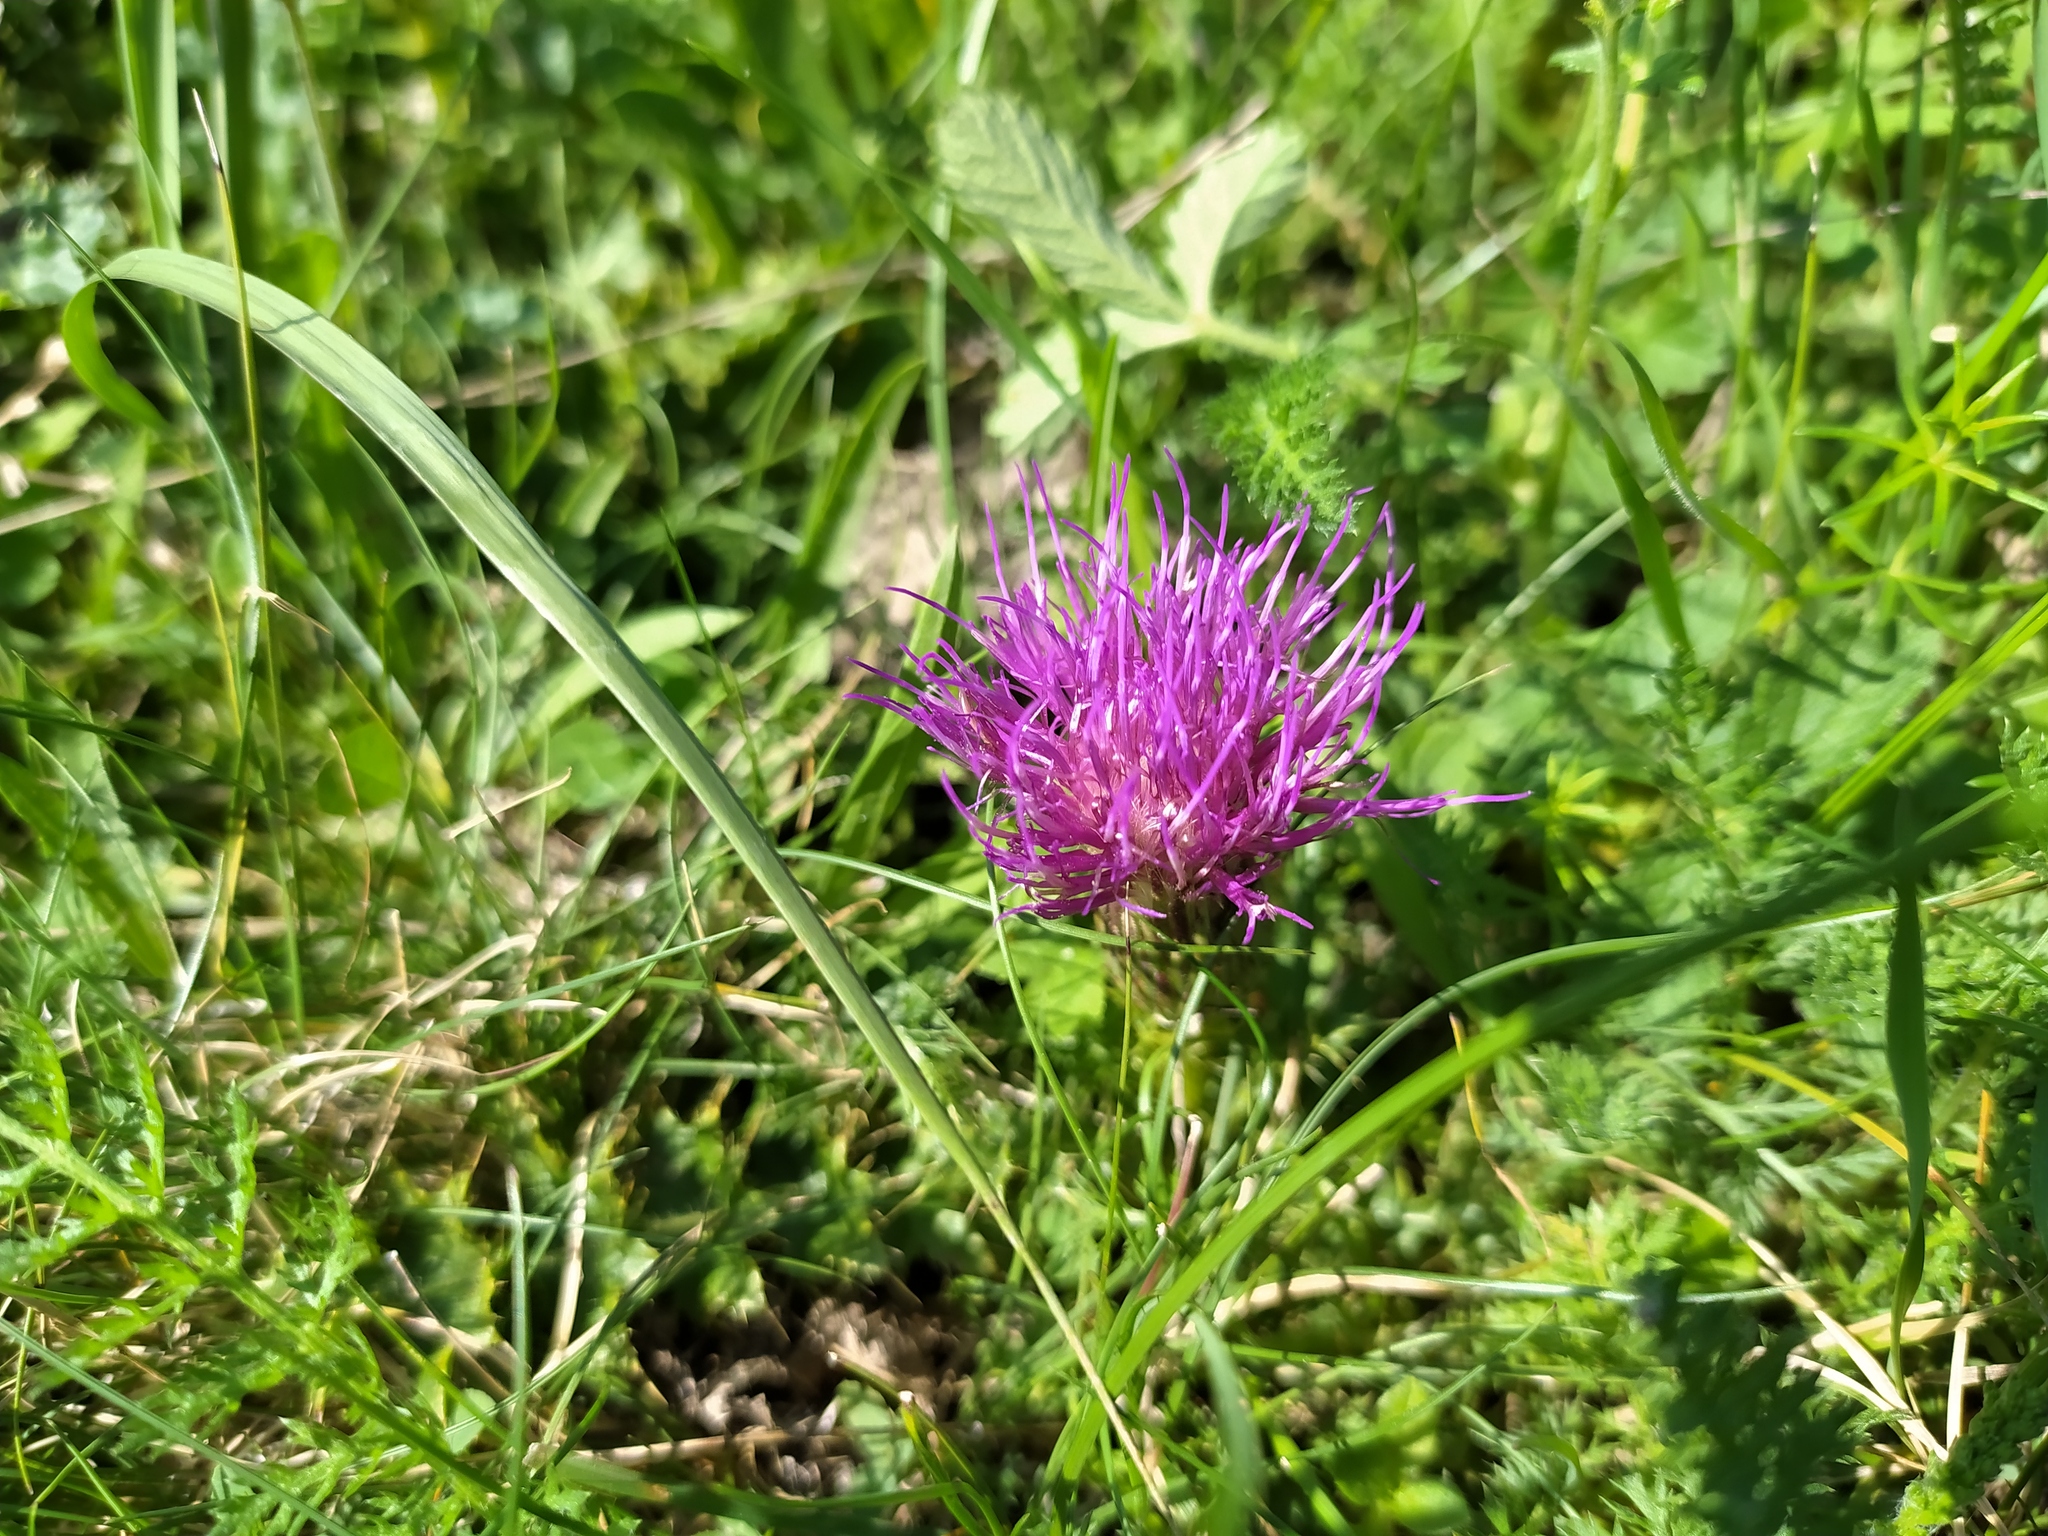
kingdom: Plantae
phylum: Tracheophyta
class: Magnoliopsida
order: Asterales
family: Asteraceae
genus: Cirsium
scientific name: Cirsium acaulon
